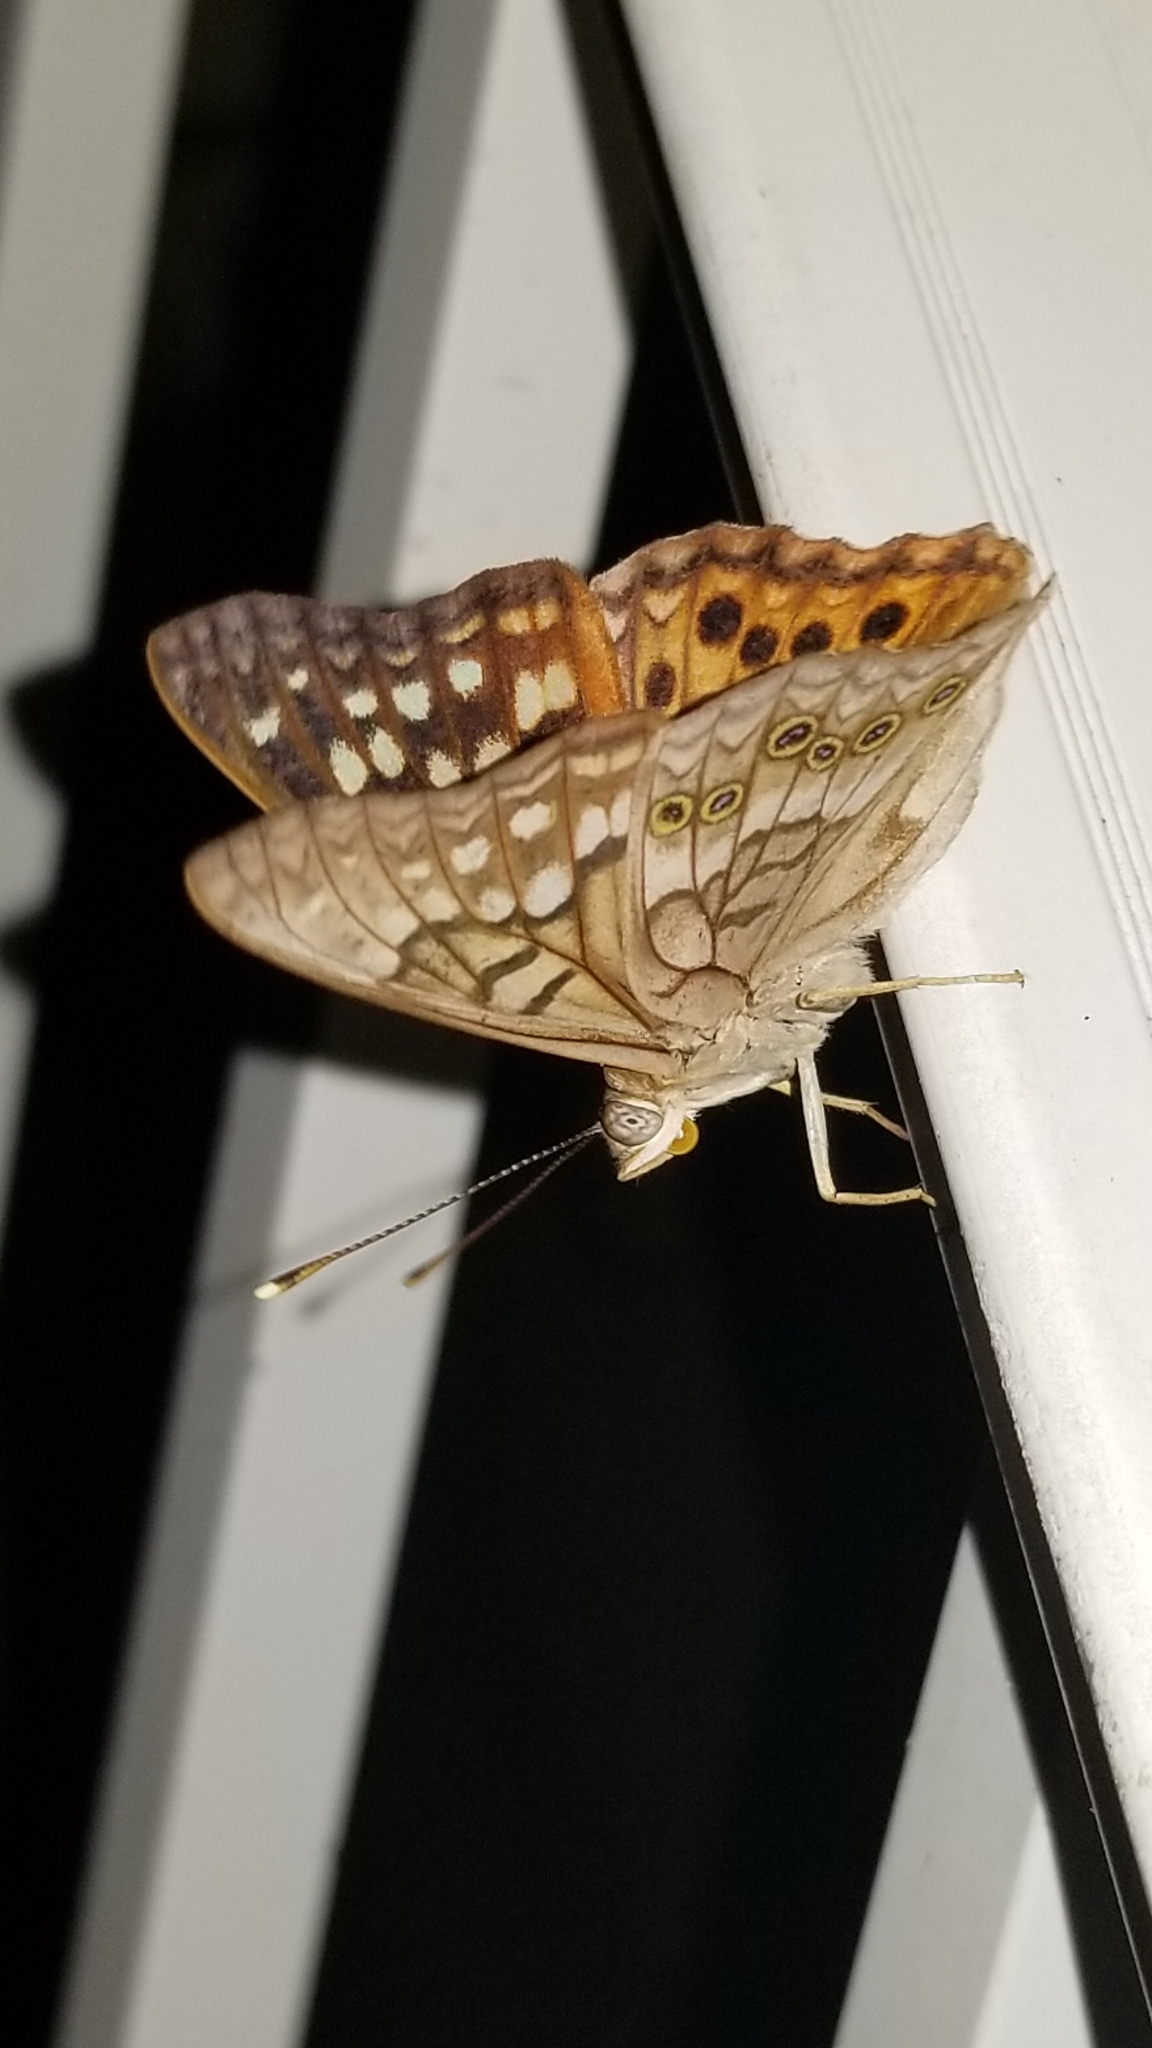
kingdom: Animalia
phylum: Arthropoda
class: Insecta
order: Lepidoptera
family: Nymphalidae
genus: Asterocampa
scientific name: Asterocampa clyton
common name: Tawny emperor
